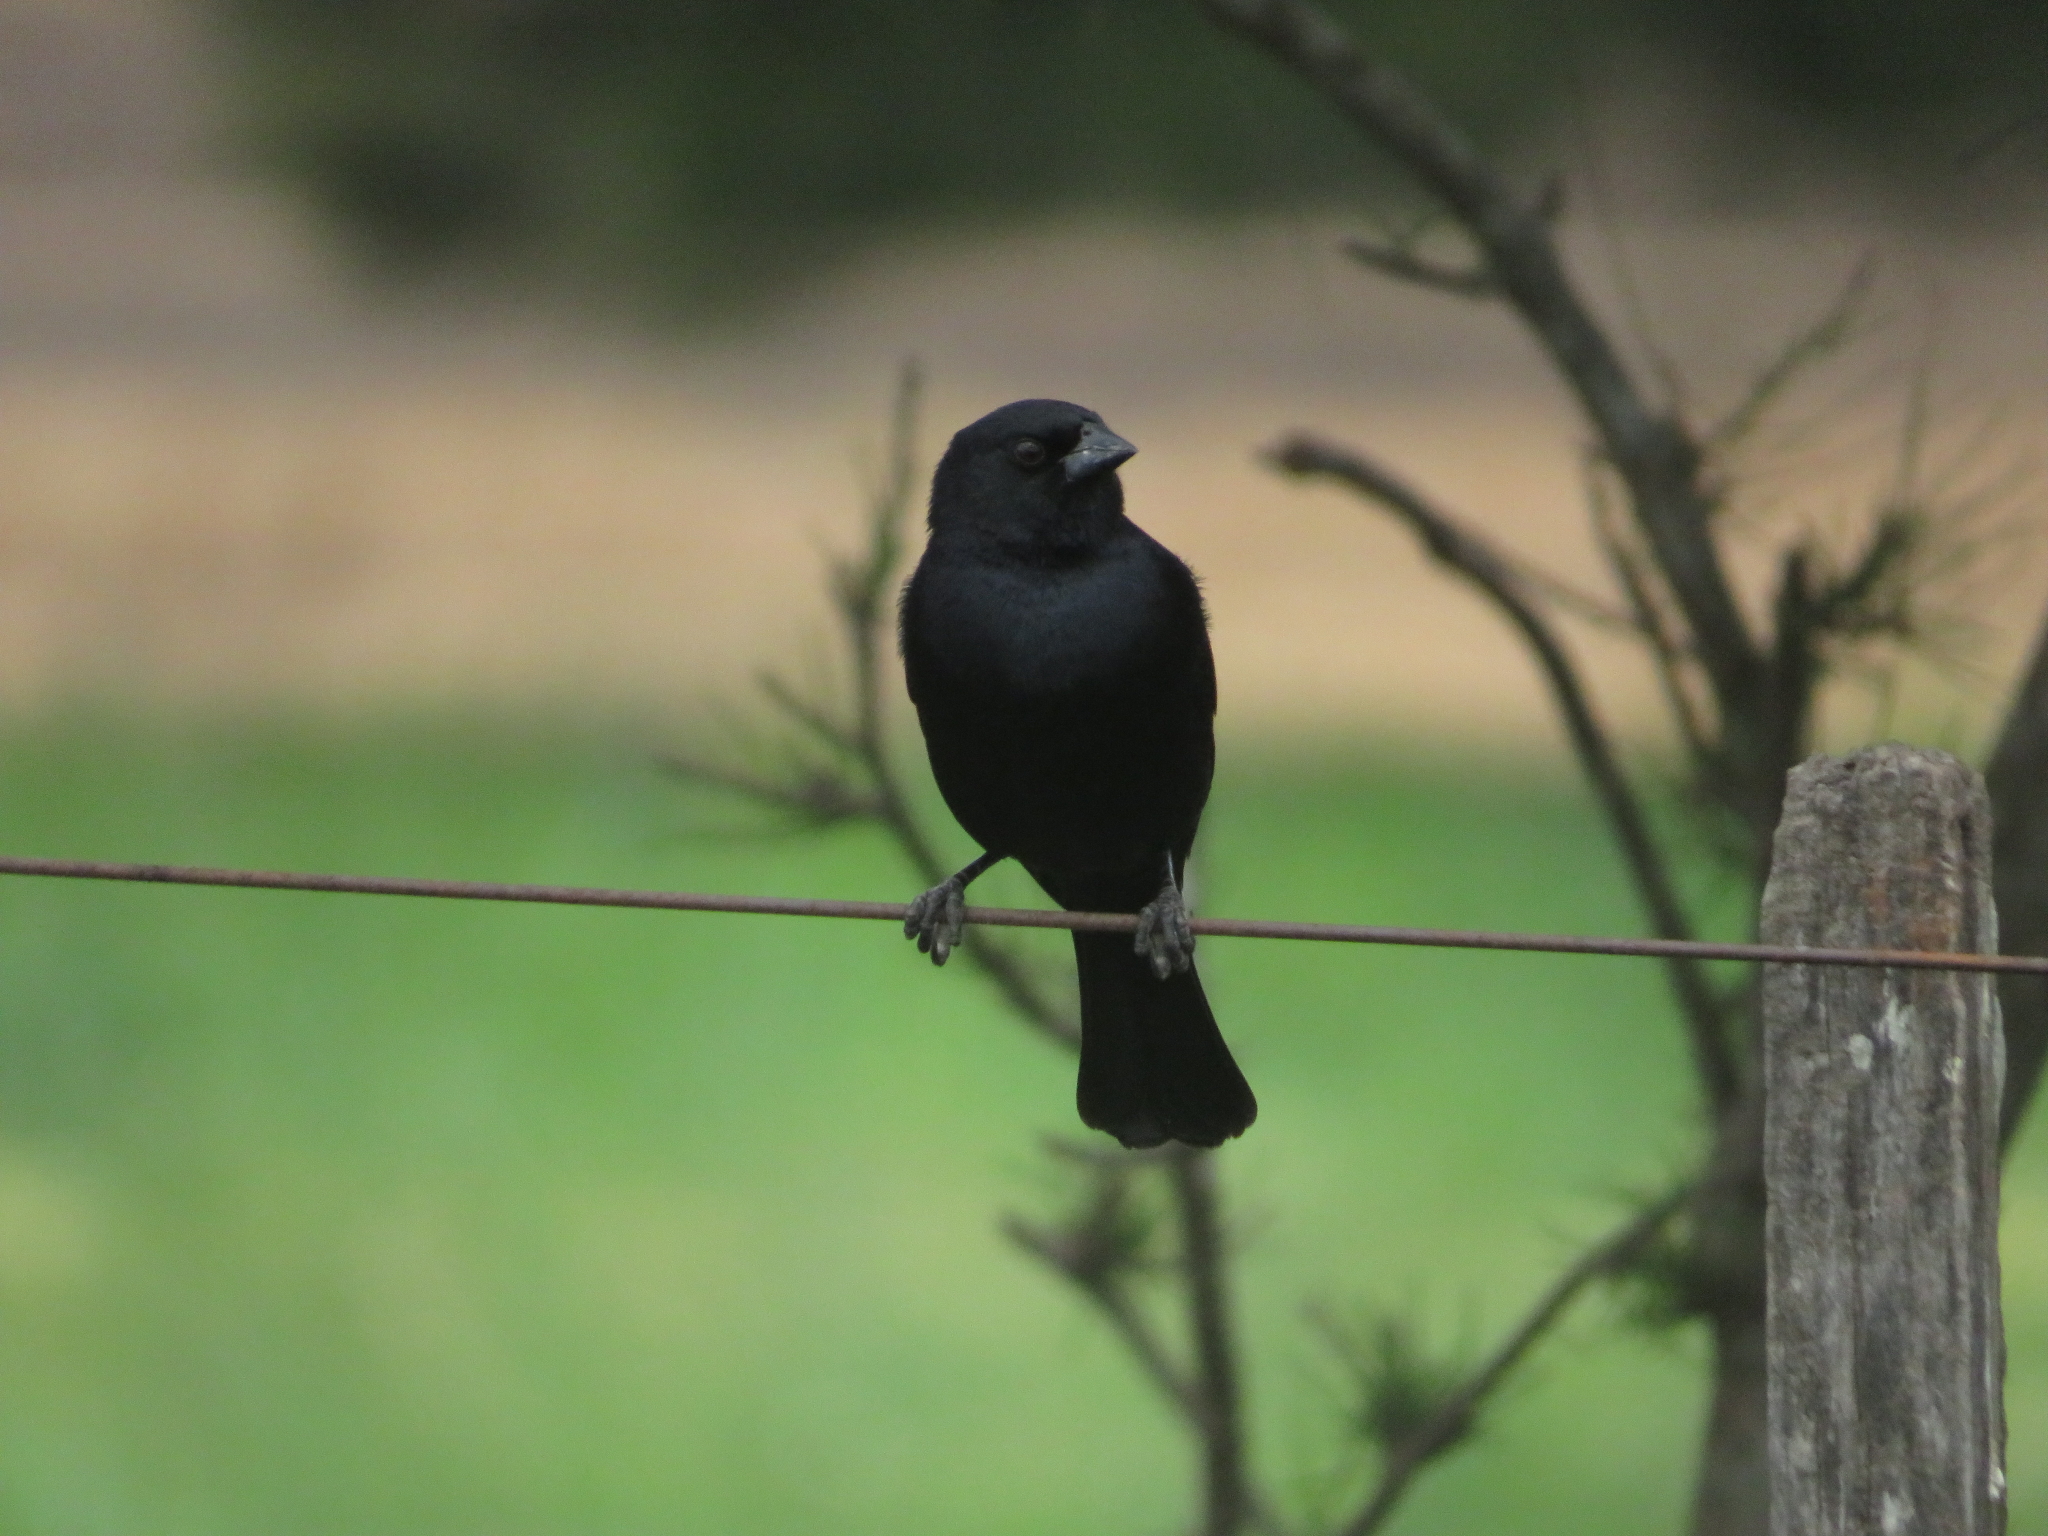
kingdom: Animalia
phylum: Chordata
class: Aves
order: Passeriformes
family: Icteridae
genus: Molothrus
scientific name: Molothrus rufoaxillaris
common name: Screaming cowbird
